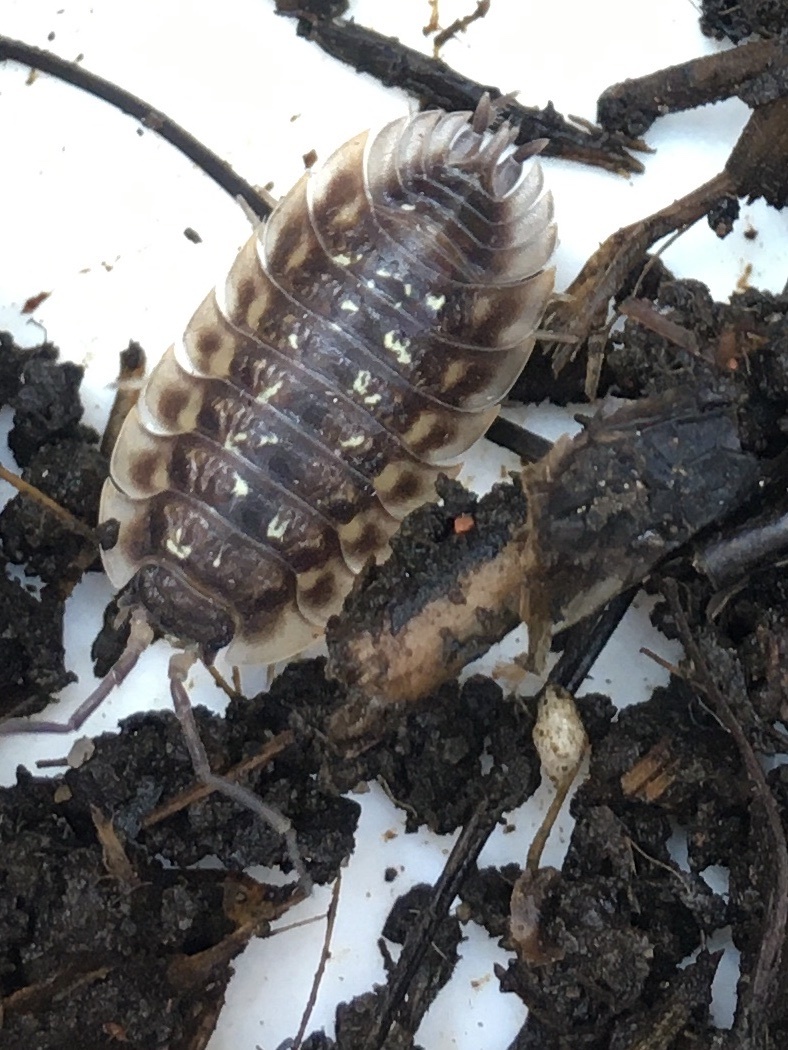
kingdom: Animalia
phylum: Arthropoda
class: Malacostraca
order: Isopoda
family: Oniscidae
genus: Oniscus
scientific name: Oniscus asellus
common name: Common shiny woodlouse
